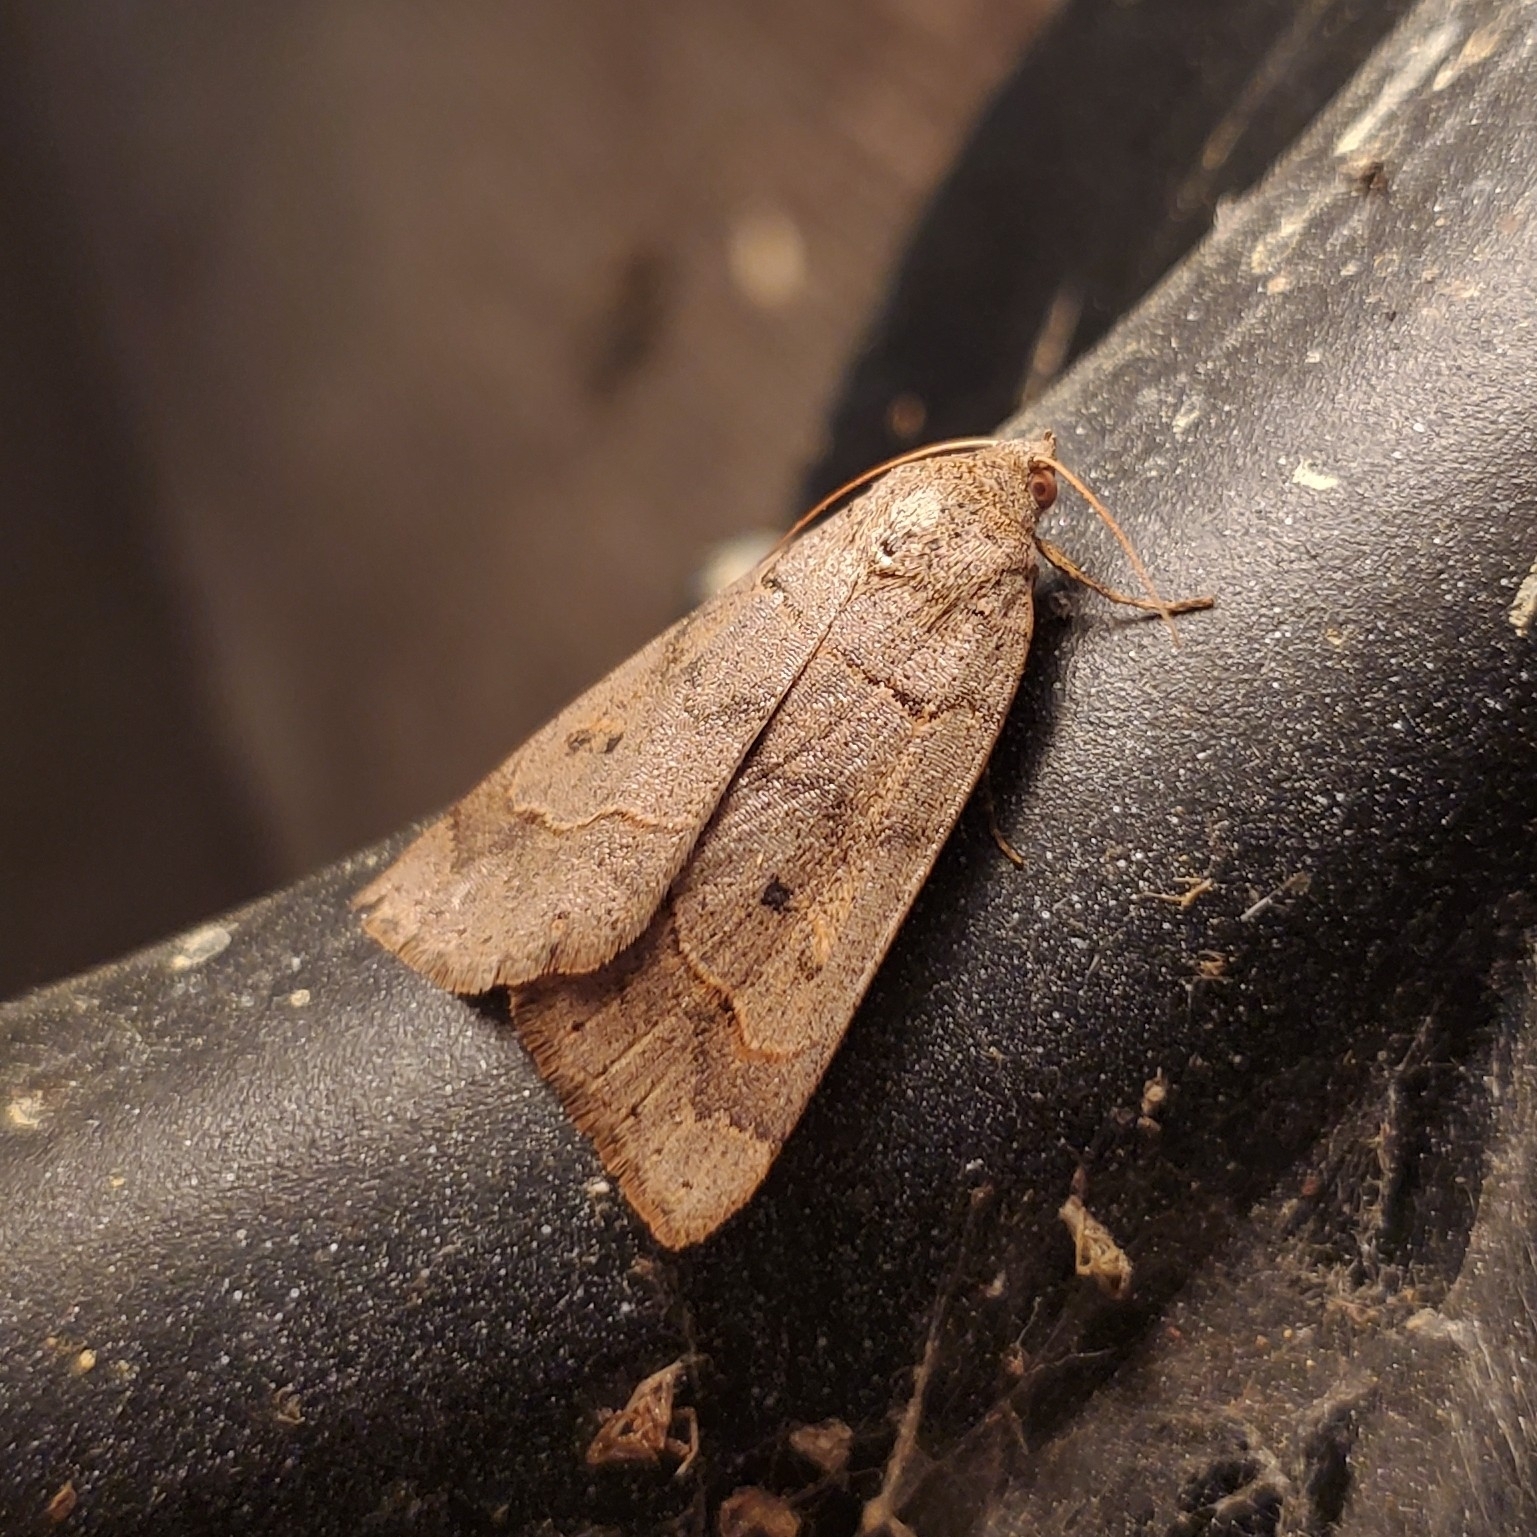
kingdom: Animalia
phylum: Arthropoda
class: Insecta
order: Lepidoptera
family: Erebidae
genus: Phoberia
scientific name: Phoberia atomaris
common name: Common oak moth
